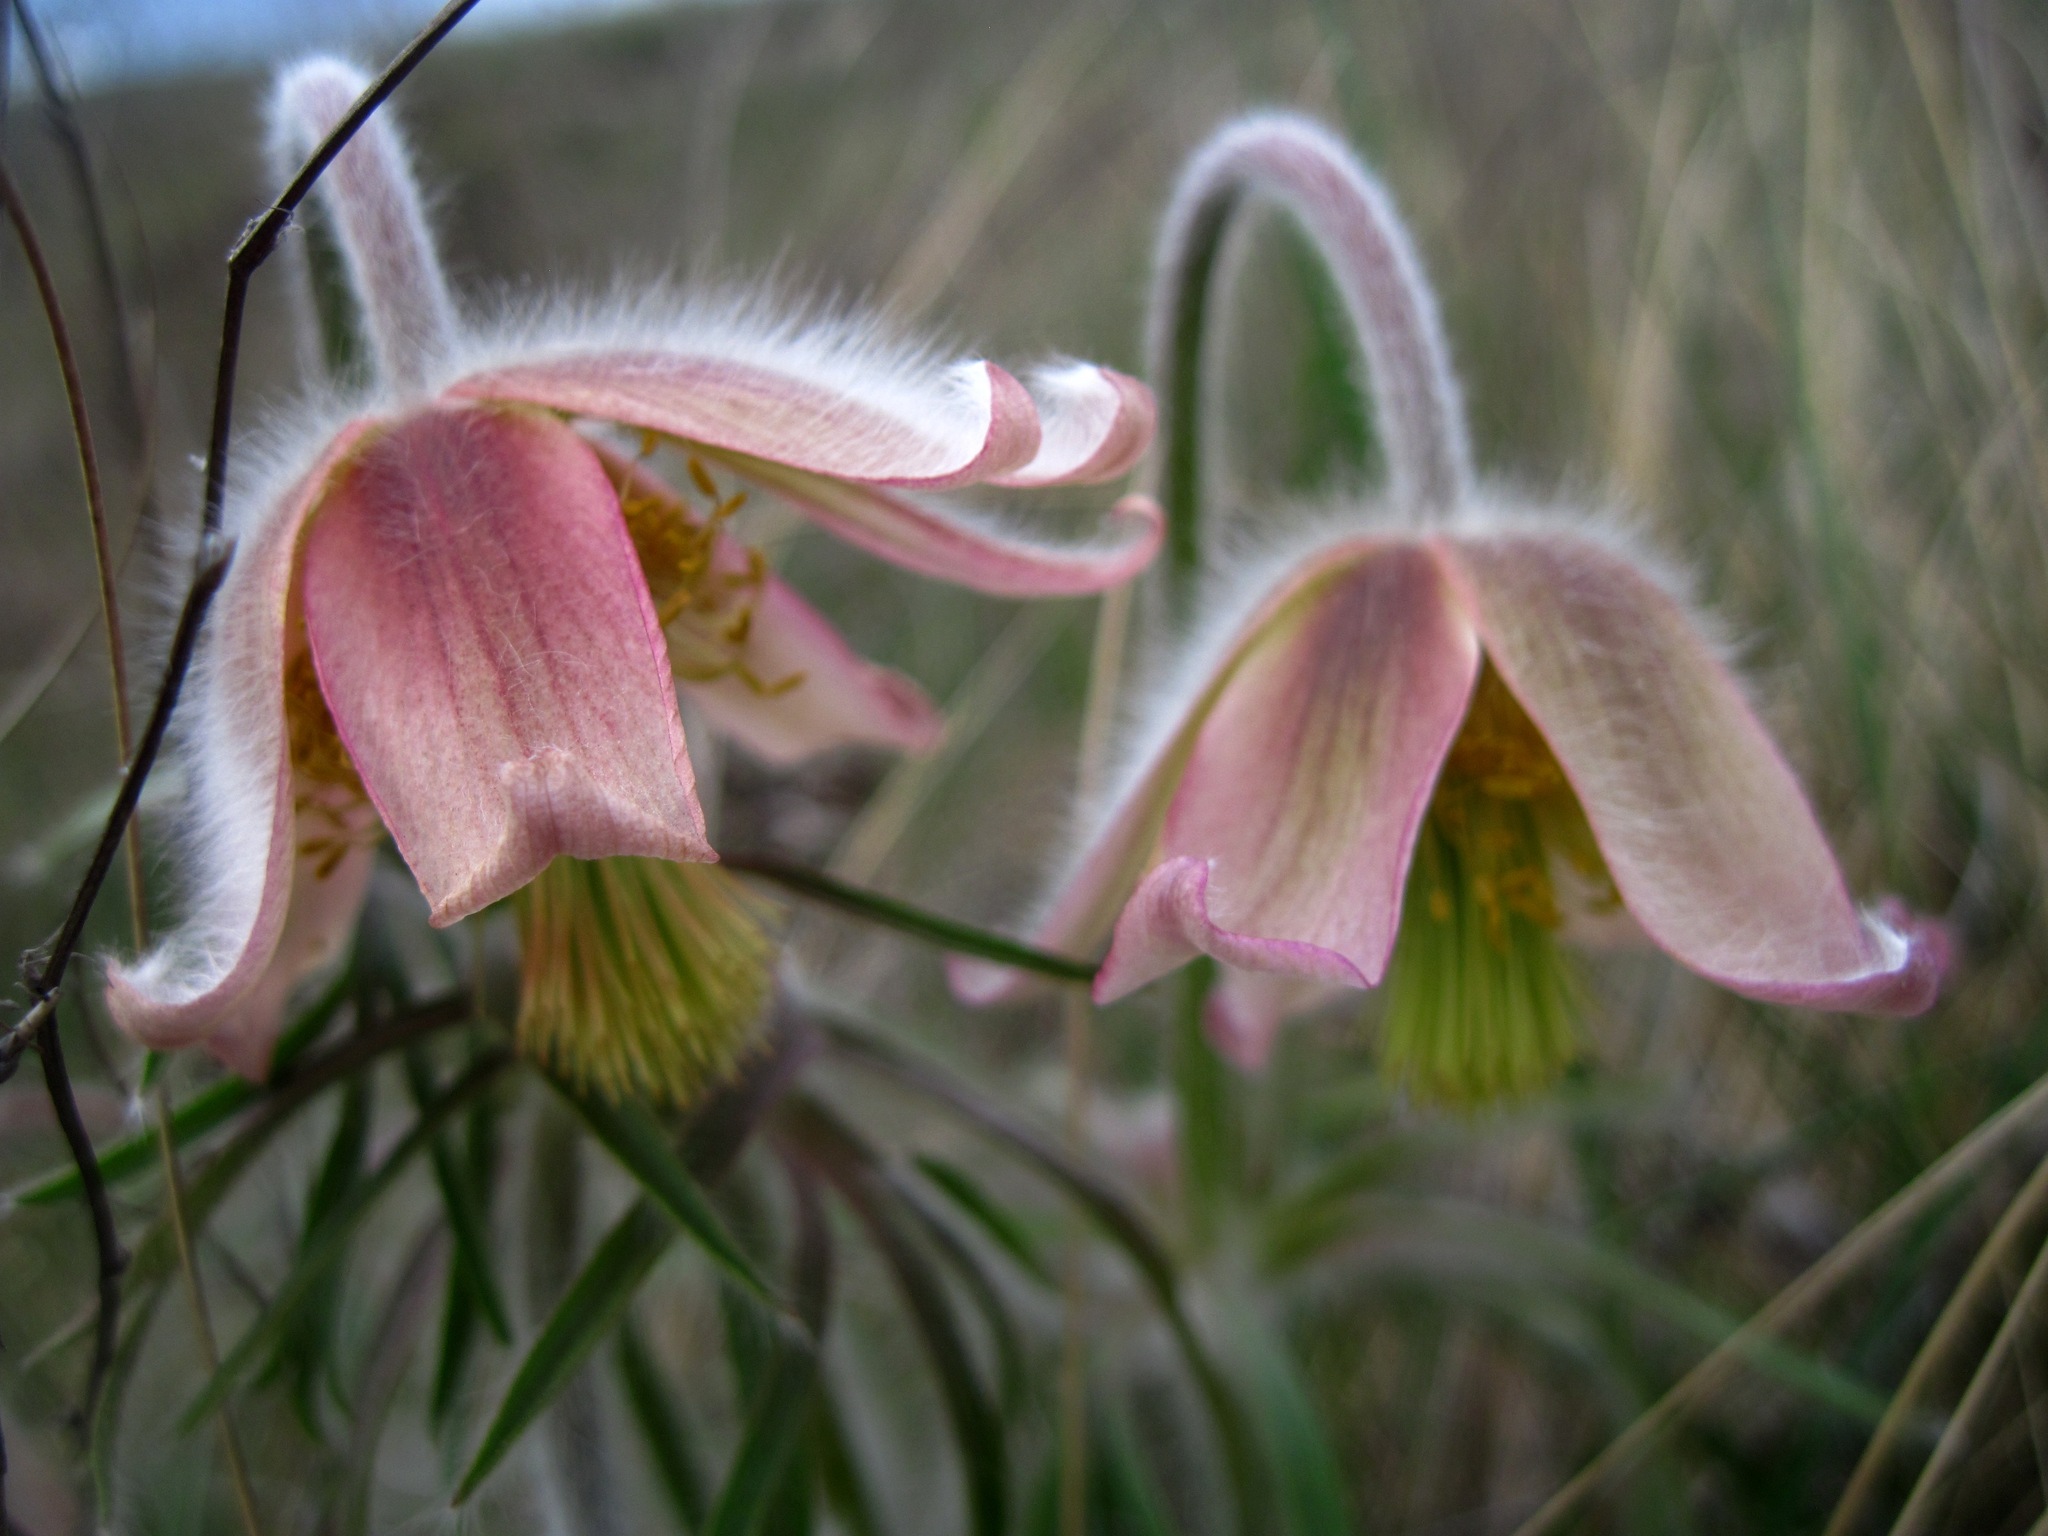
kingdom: Plantae
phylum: Tracheophyta
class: Magnoliopsida
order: Ranunculales
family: Ranunculaceae
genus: Pulsatilla
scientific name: Pulsatilla pratensis
